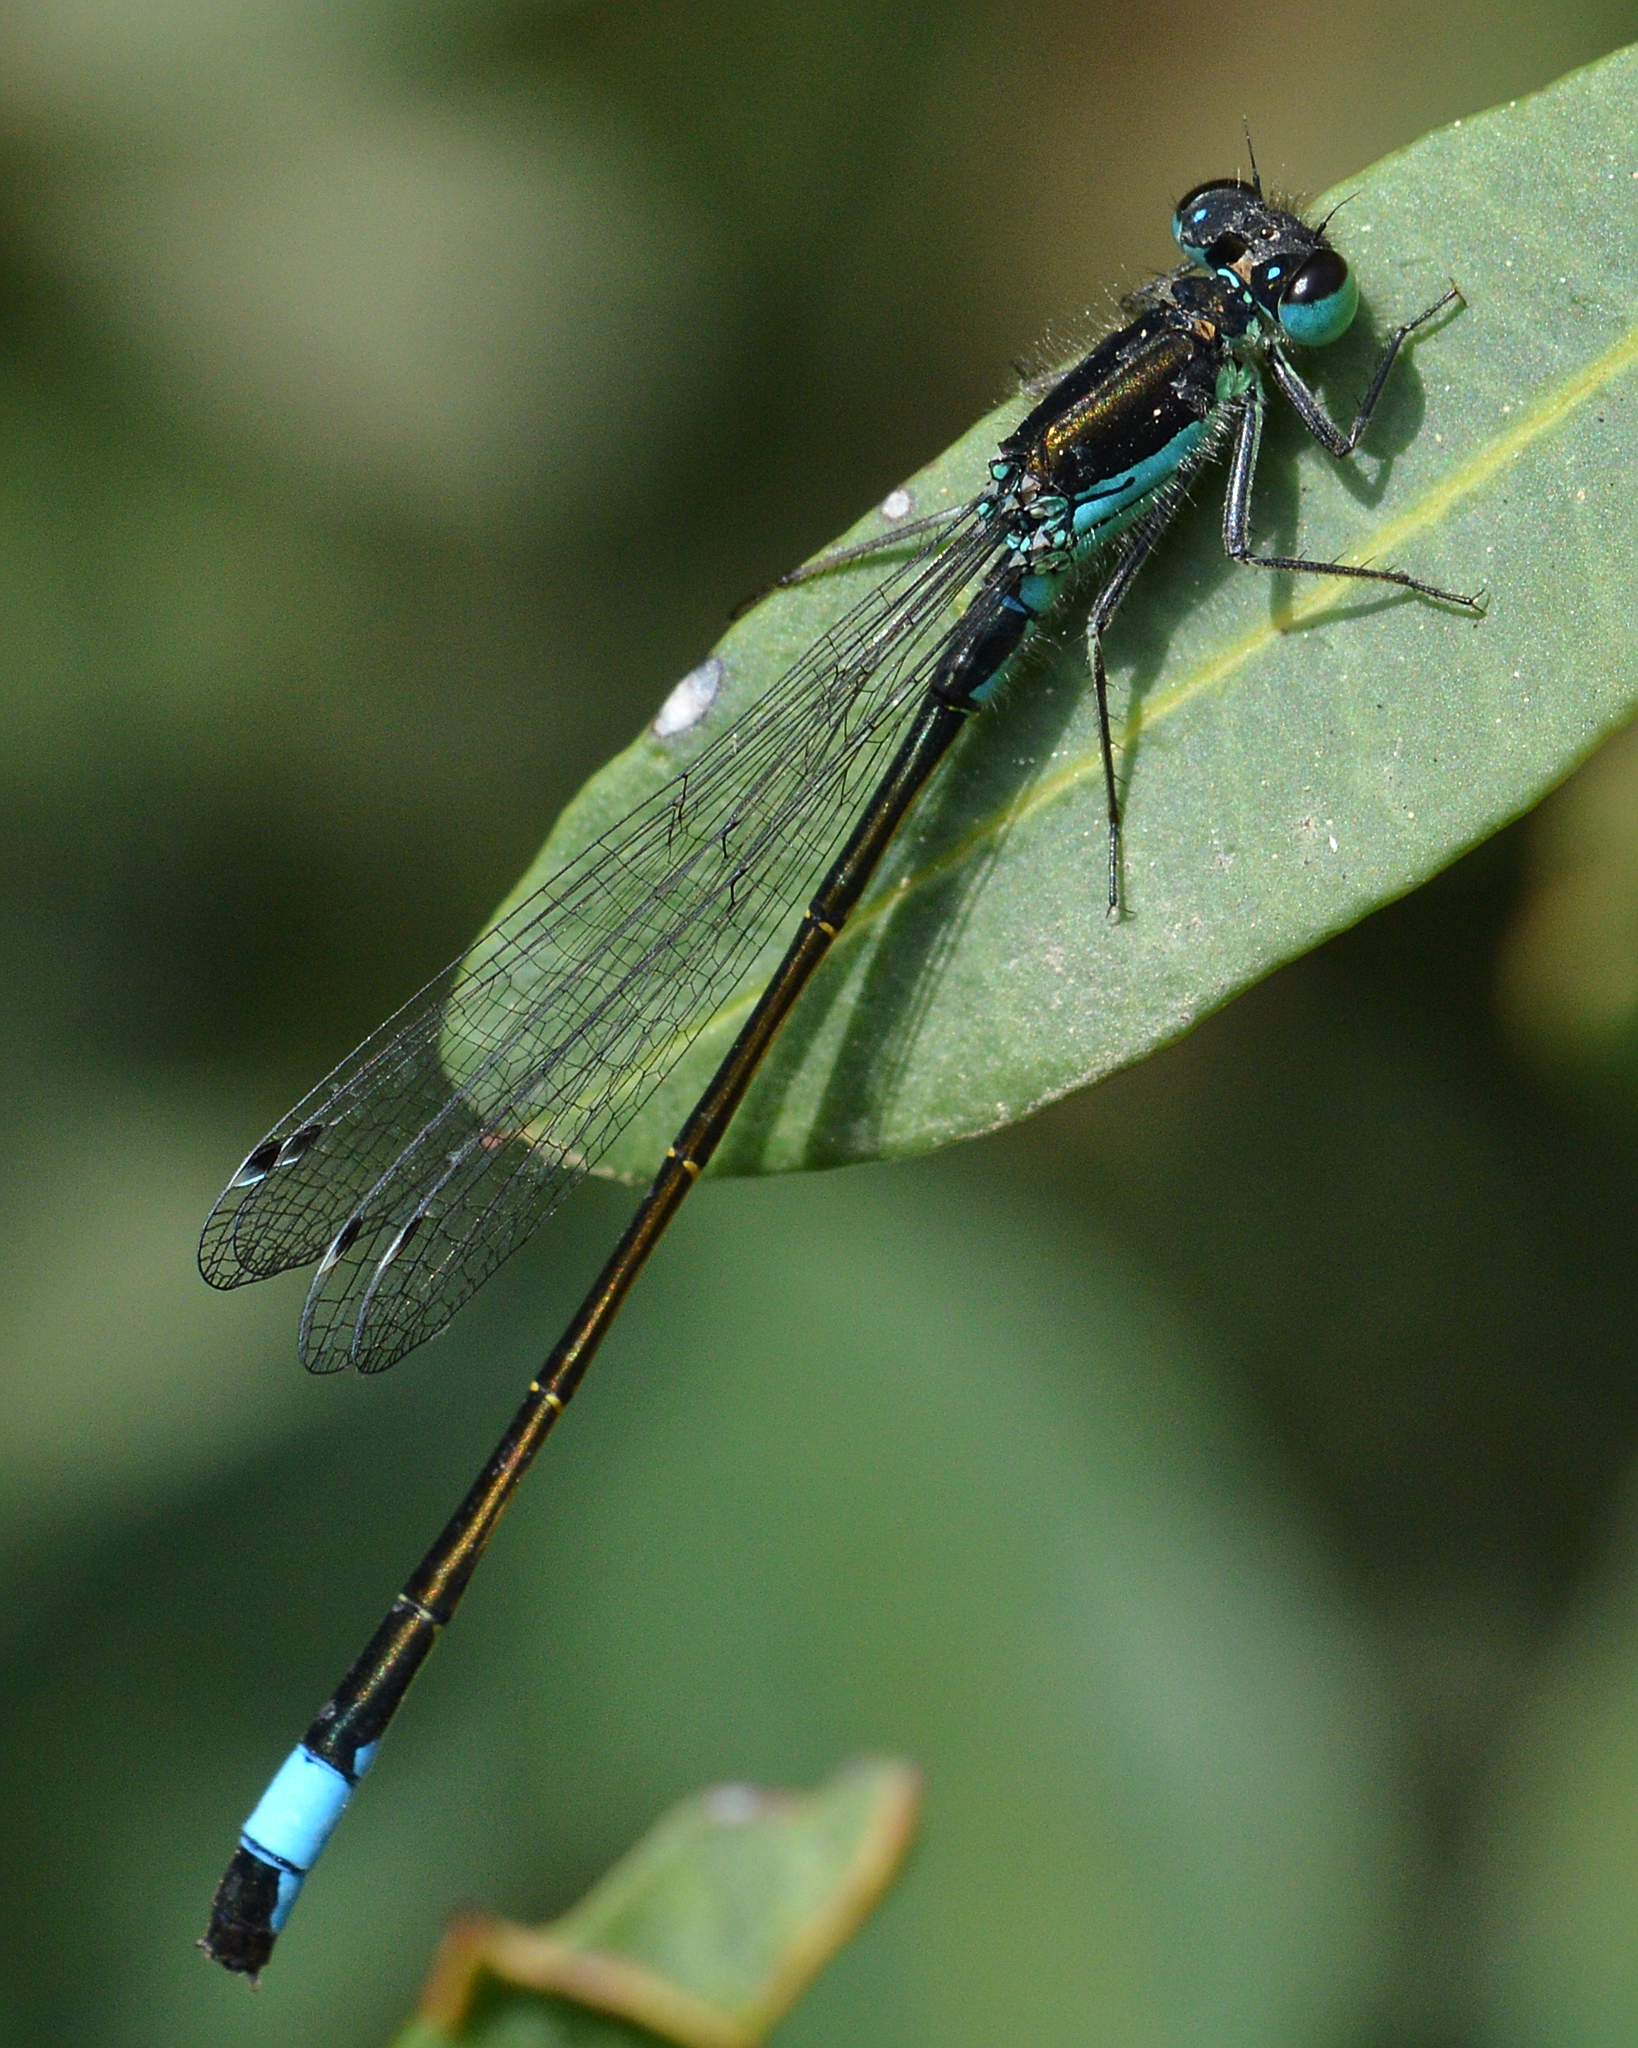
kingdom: Animalia
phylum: Arthropoda
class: Insecta
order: Odonata
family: Coenagrionidae
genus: Ischnura
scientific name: Ischnura elegans
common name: Blue-tailed damselfly
